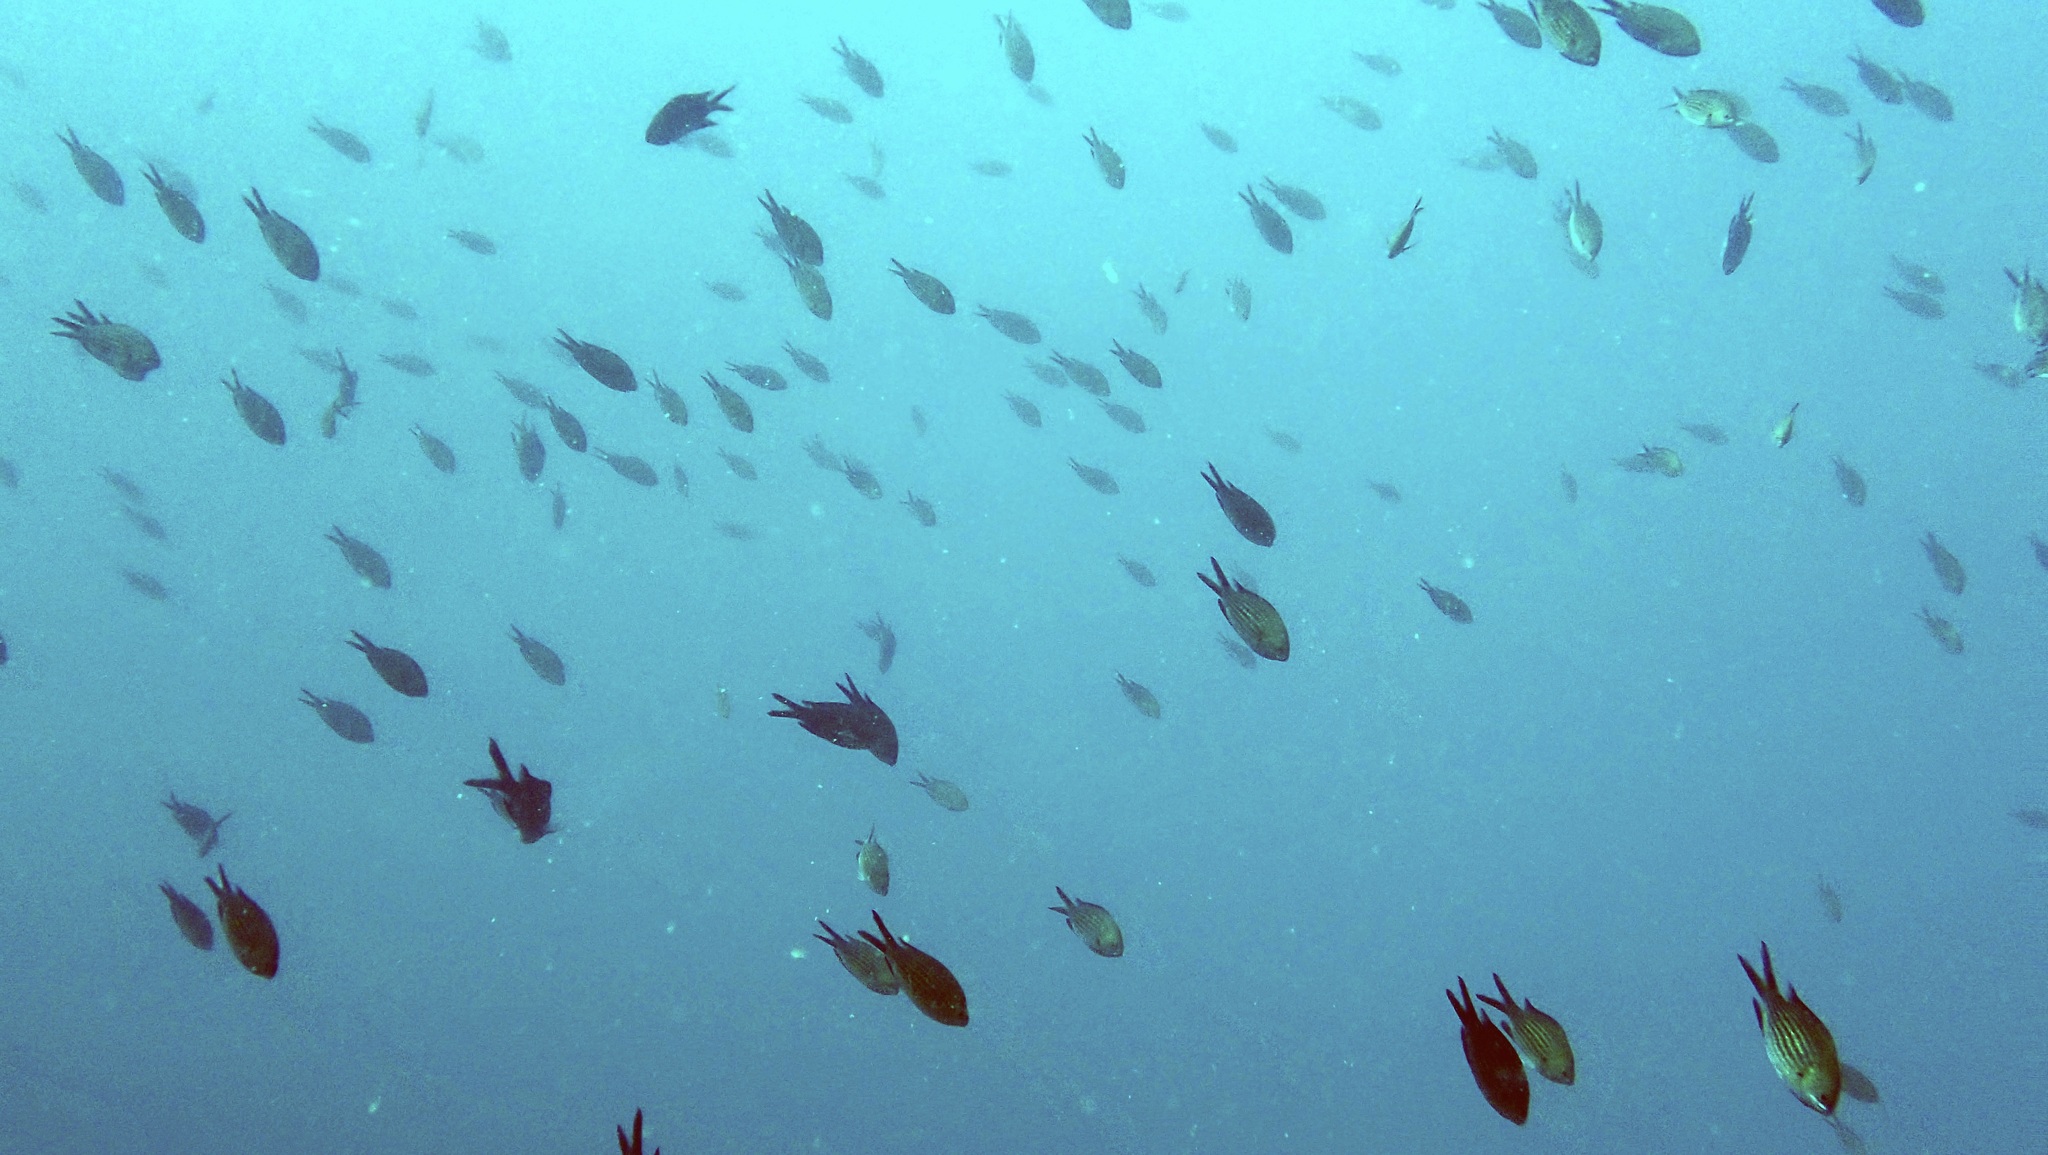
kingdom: Animalia
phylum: Chordata
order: Perciformes
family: Pomacentridae
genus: Chromis
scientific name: Chromis chromis
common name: Damselfish
